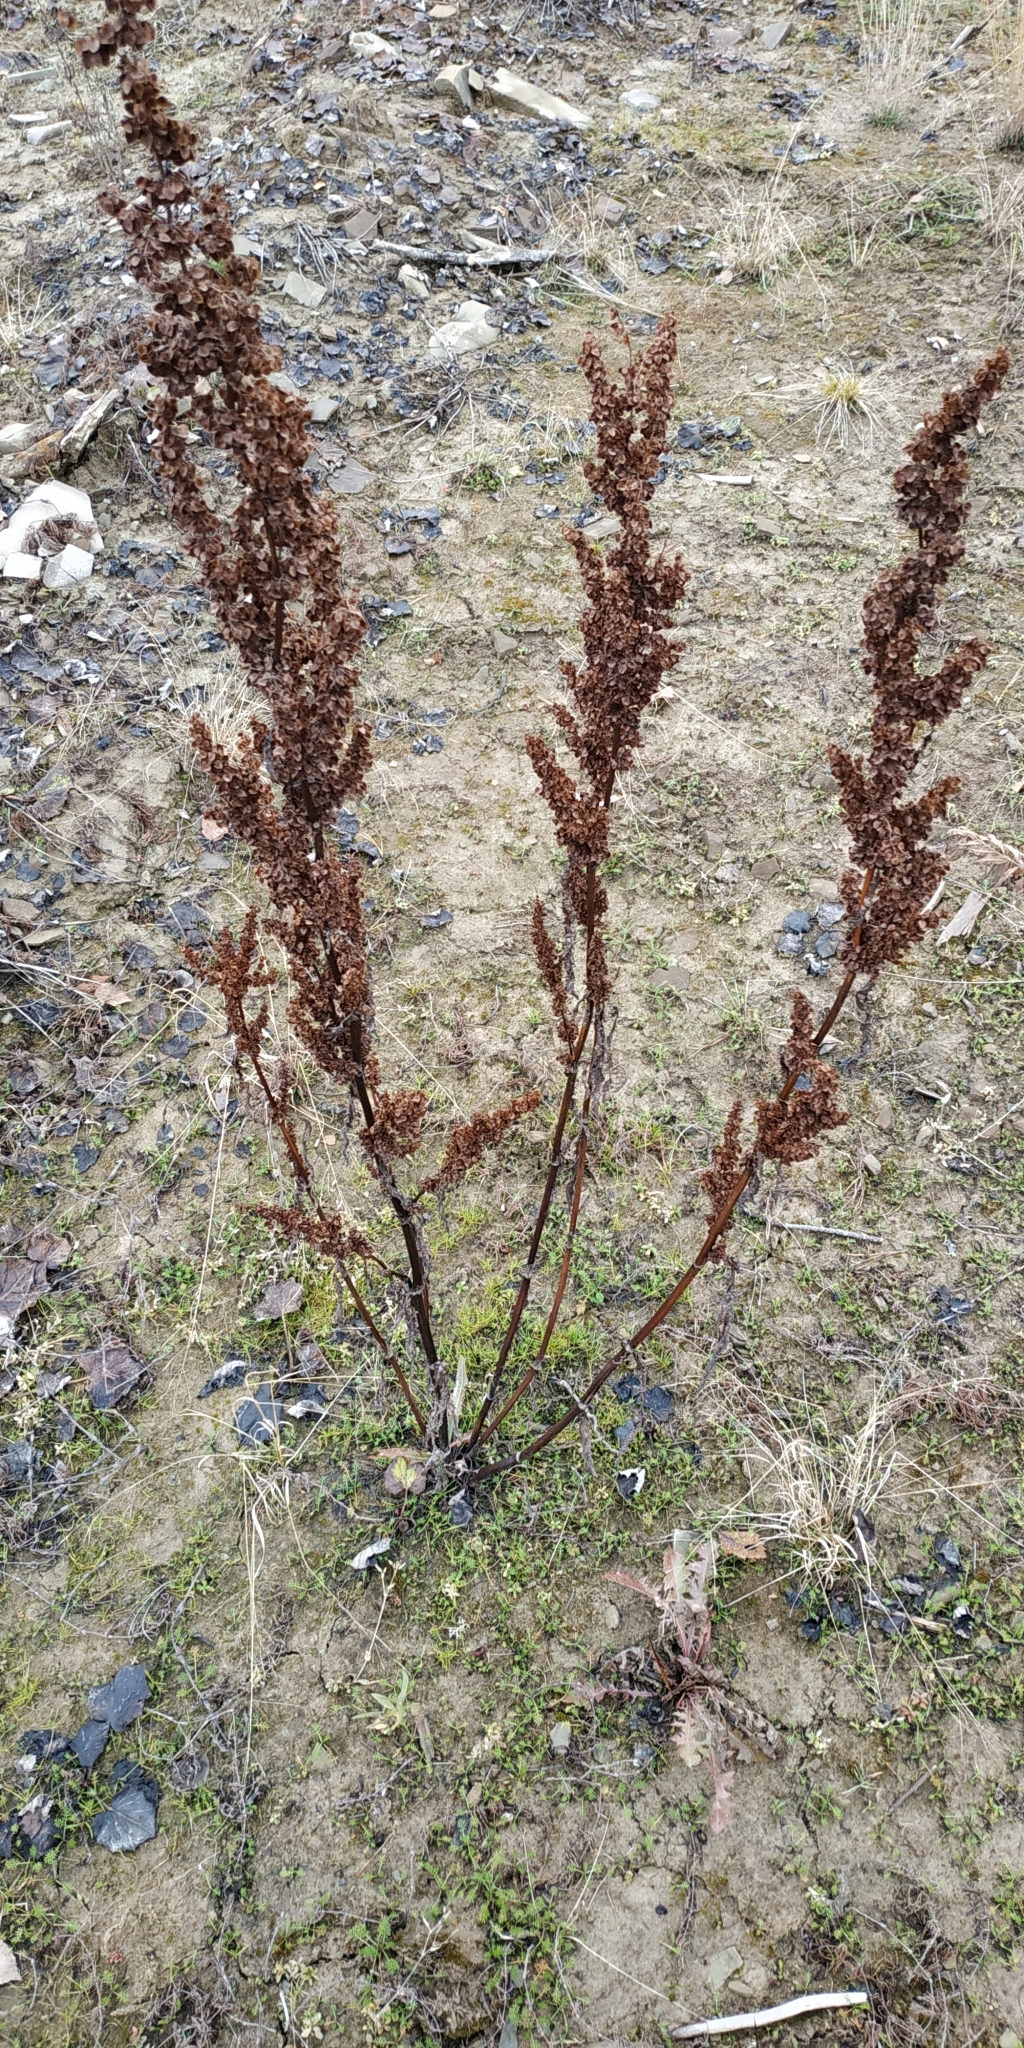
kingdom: Plantae
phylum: Tracheophyta
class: Magnoliopsida
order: Caryophyllales
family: Polygonaceae
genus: Rumex
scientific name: Rumex pseudonatronatus
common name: Field dock
